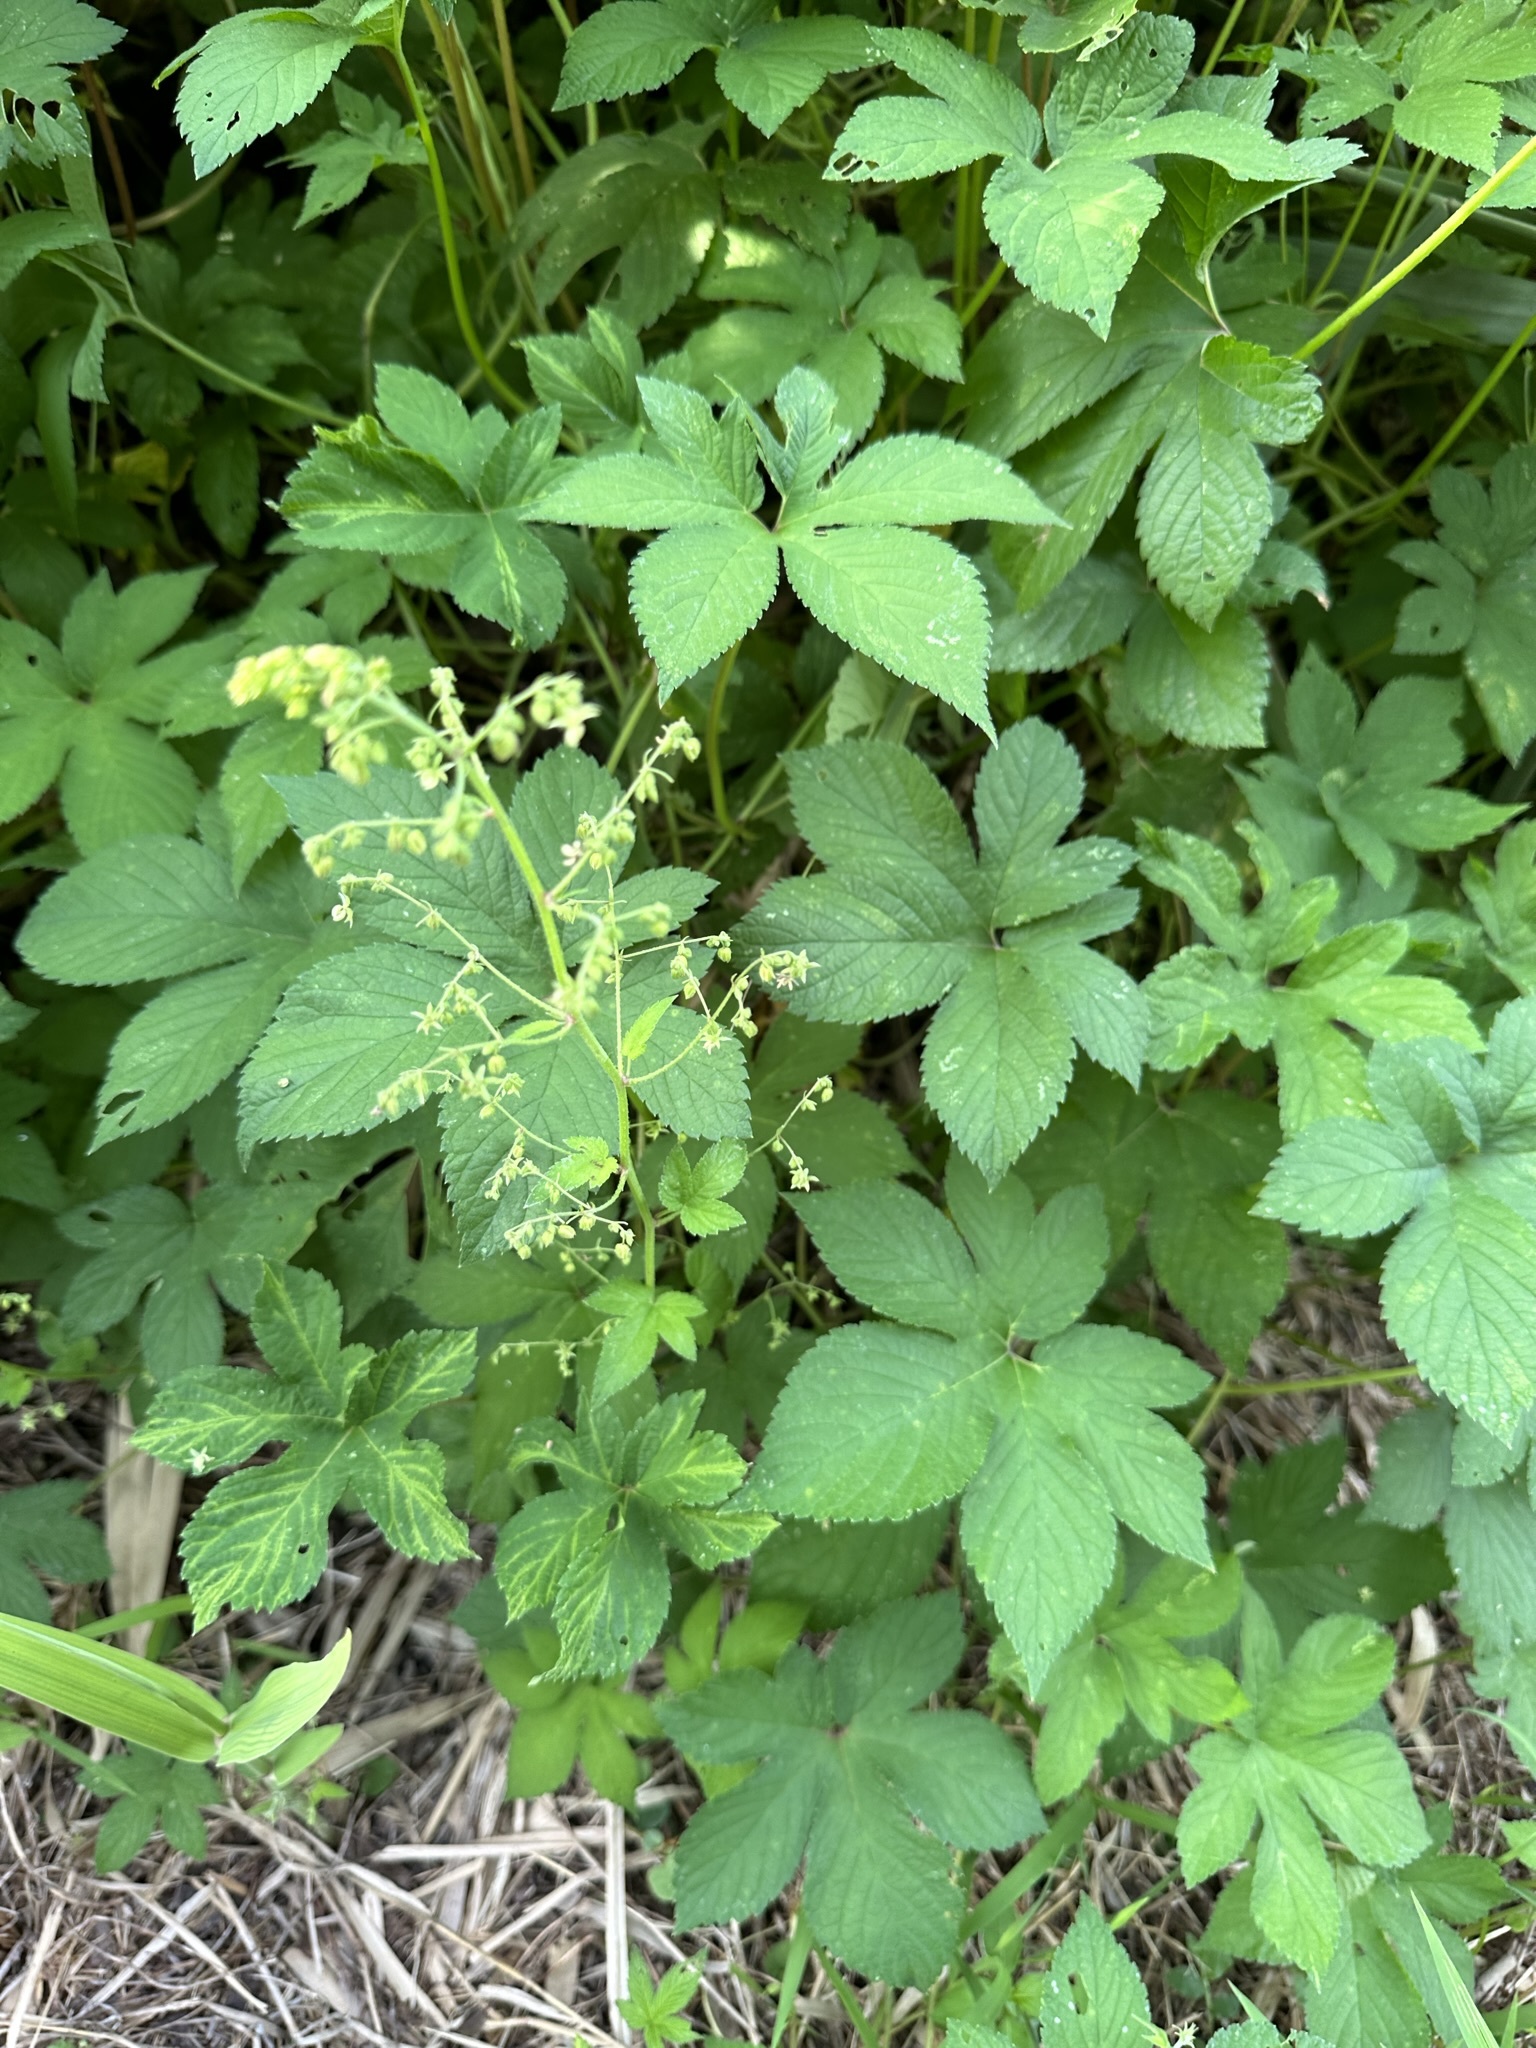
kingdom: Plantae
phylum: Tracheophyta
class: Magnoliopsida
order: Rosales
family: Cannabaceae
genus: Humulus
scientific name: Humulus scandens
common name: Japanese hop
